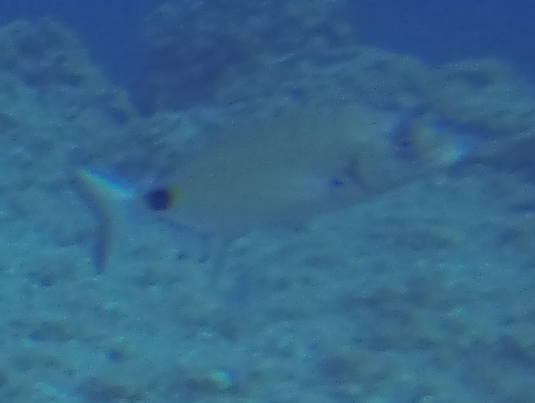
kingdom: Animalia
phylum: Chordata
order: Perciformes
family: Sparidae
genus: Diplodus
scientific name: Diplodus sargus
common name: White seabream
